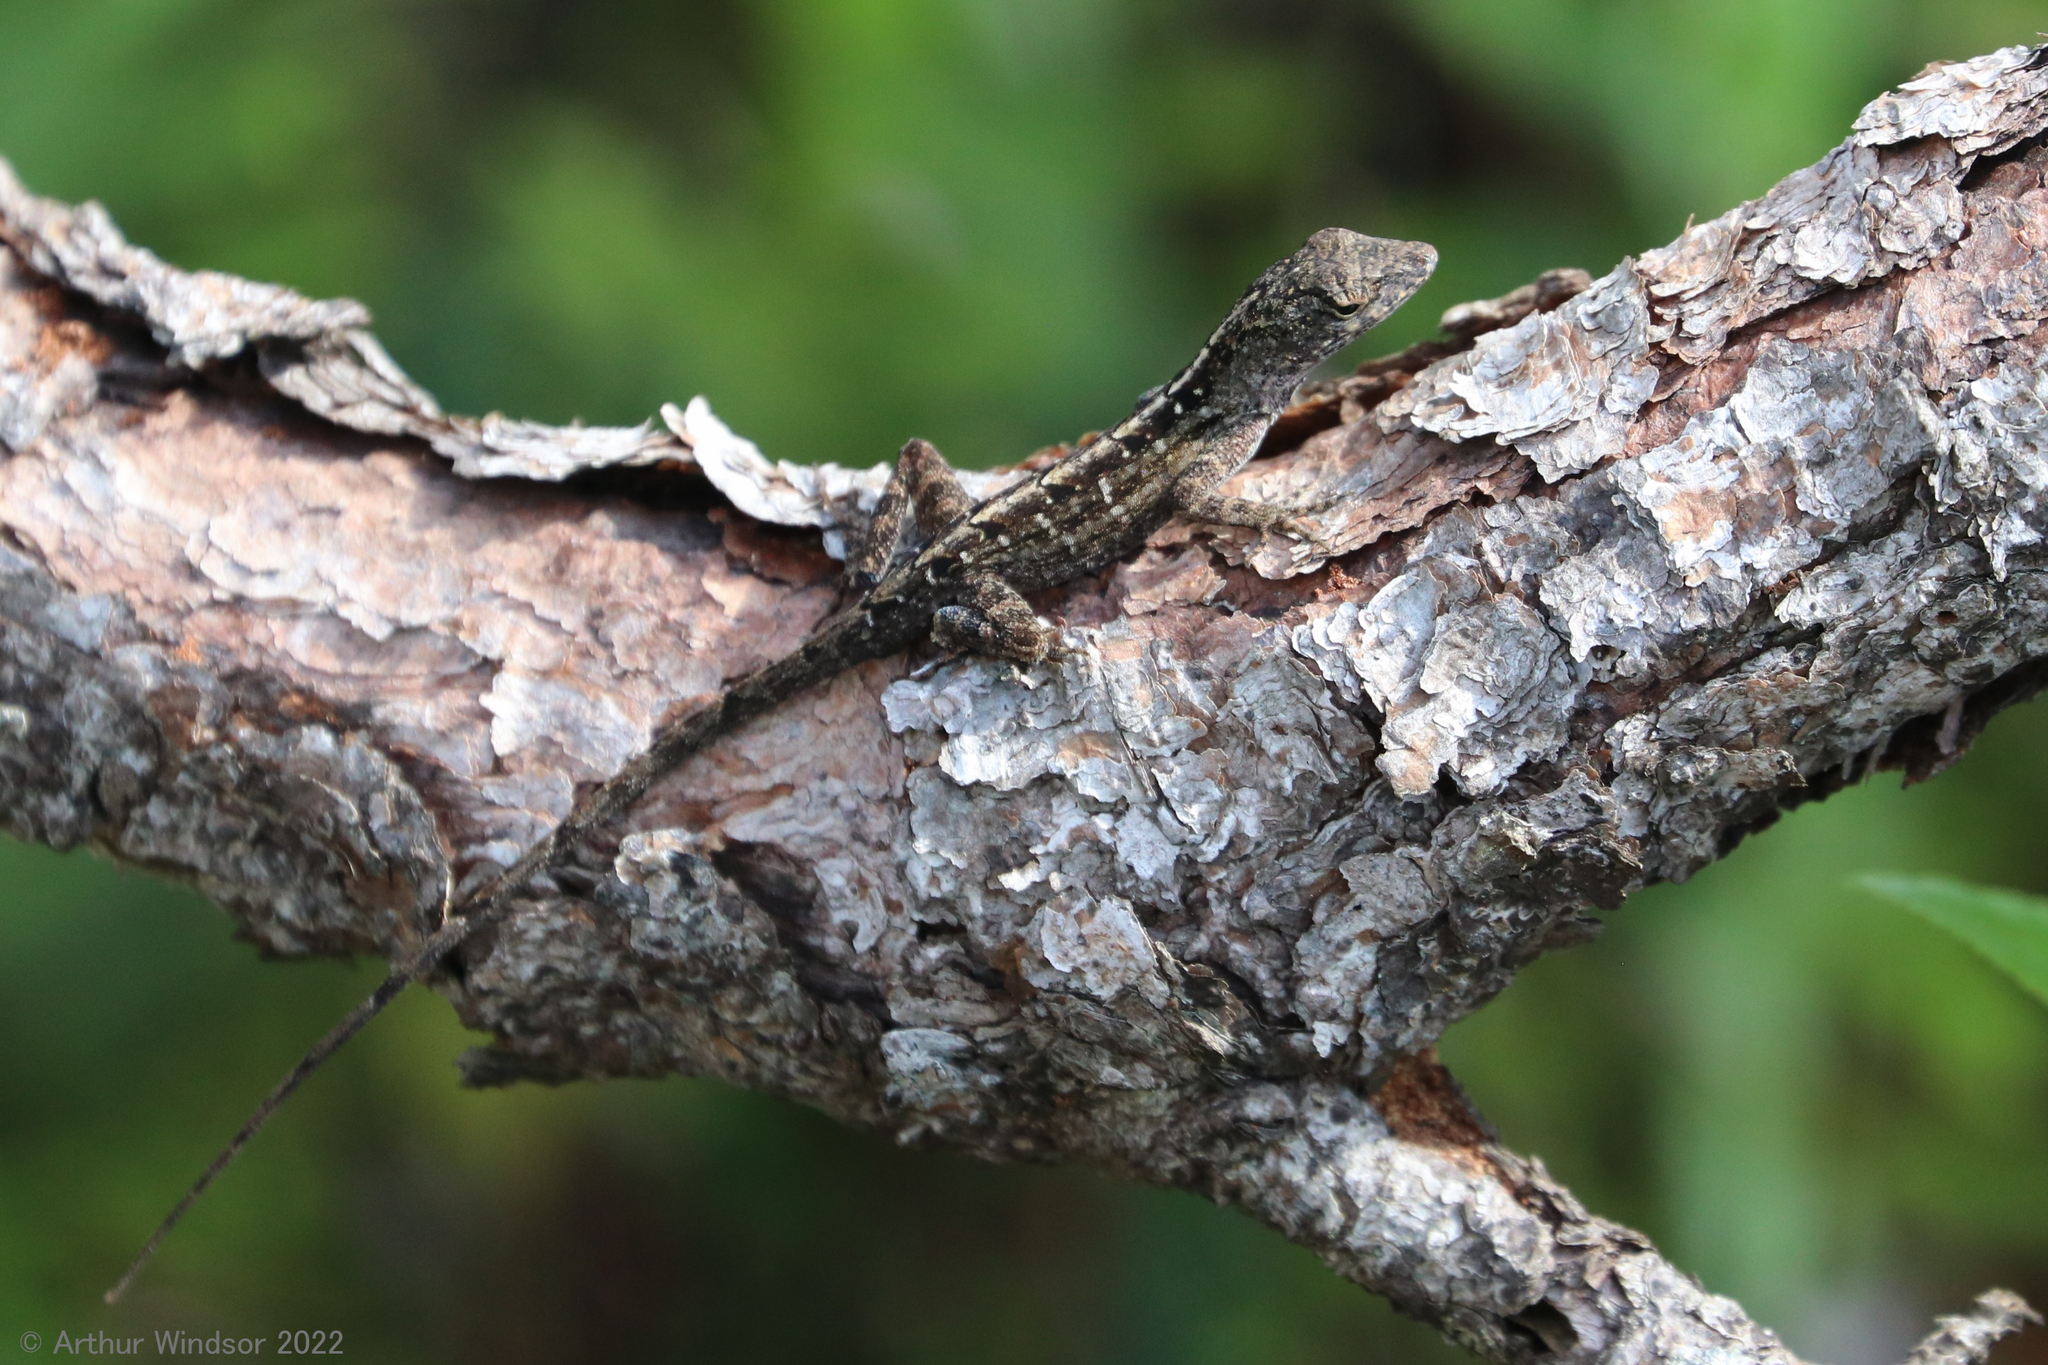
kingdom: Animalia
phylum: Chordata
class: Squamata
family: Dactyloidae
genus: Anolis
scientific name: Anolis sagrei
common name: Brown anole
